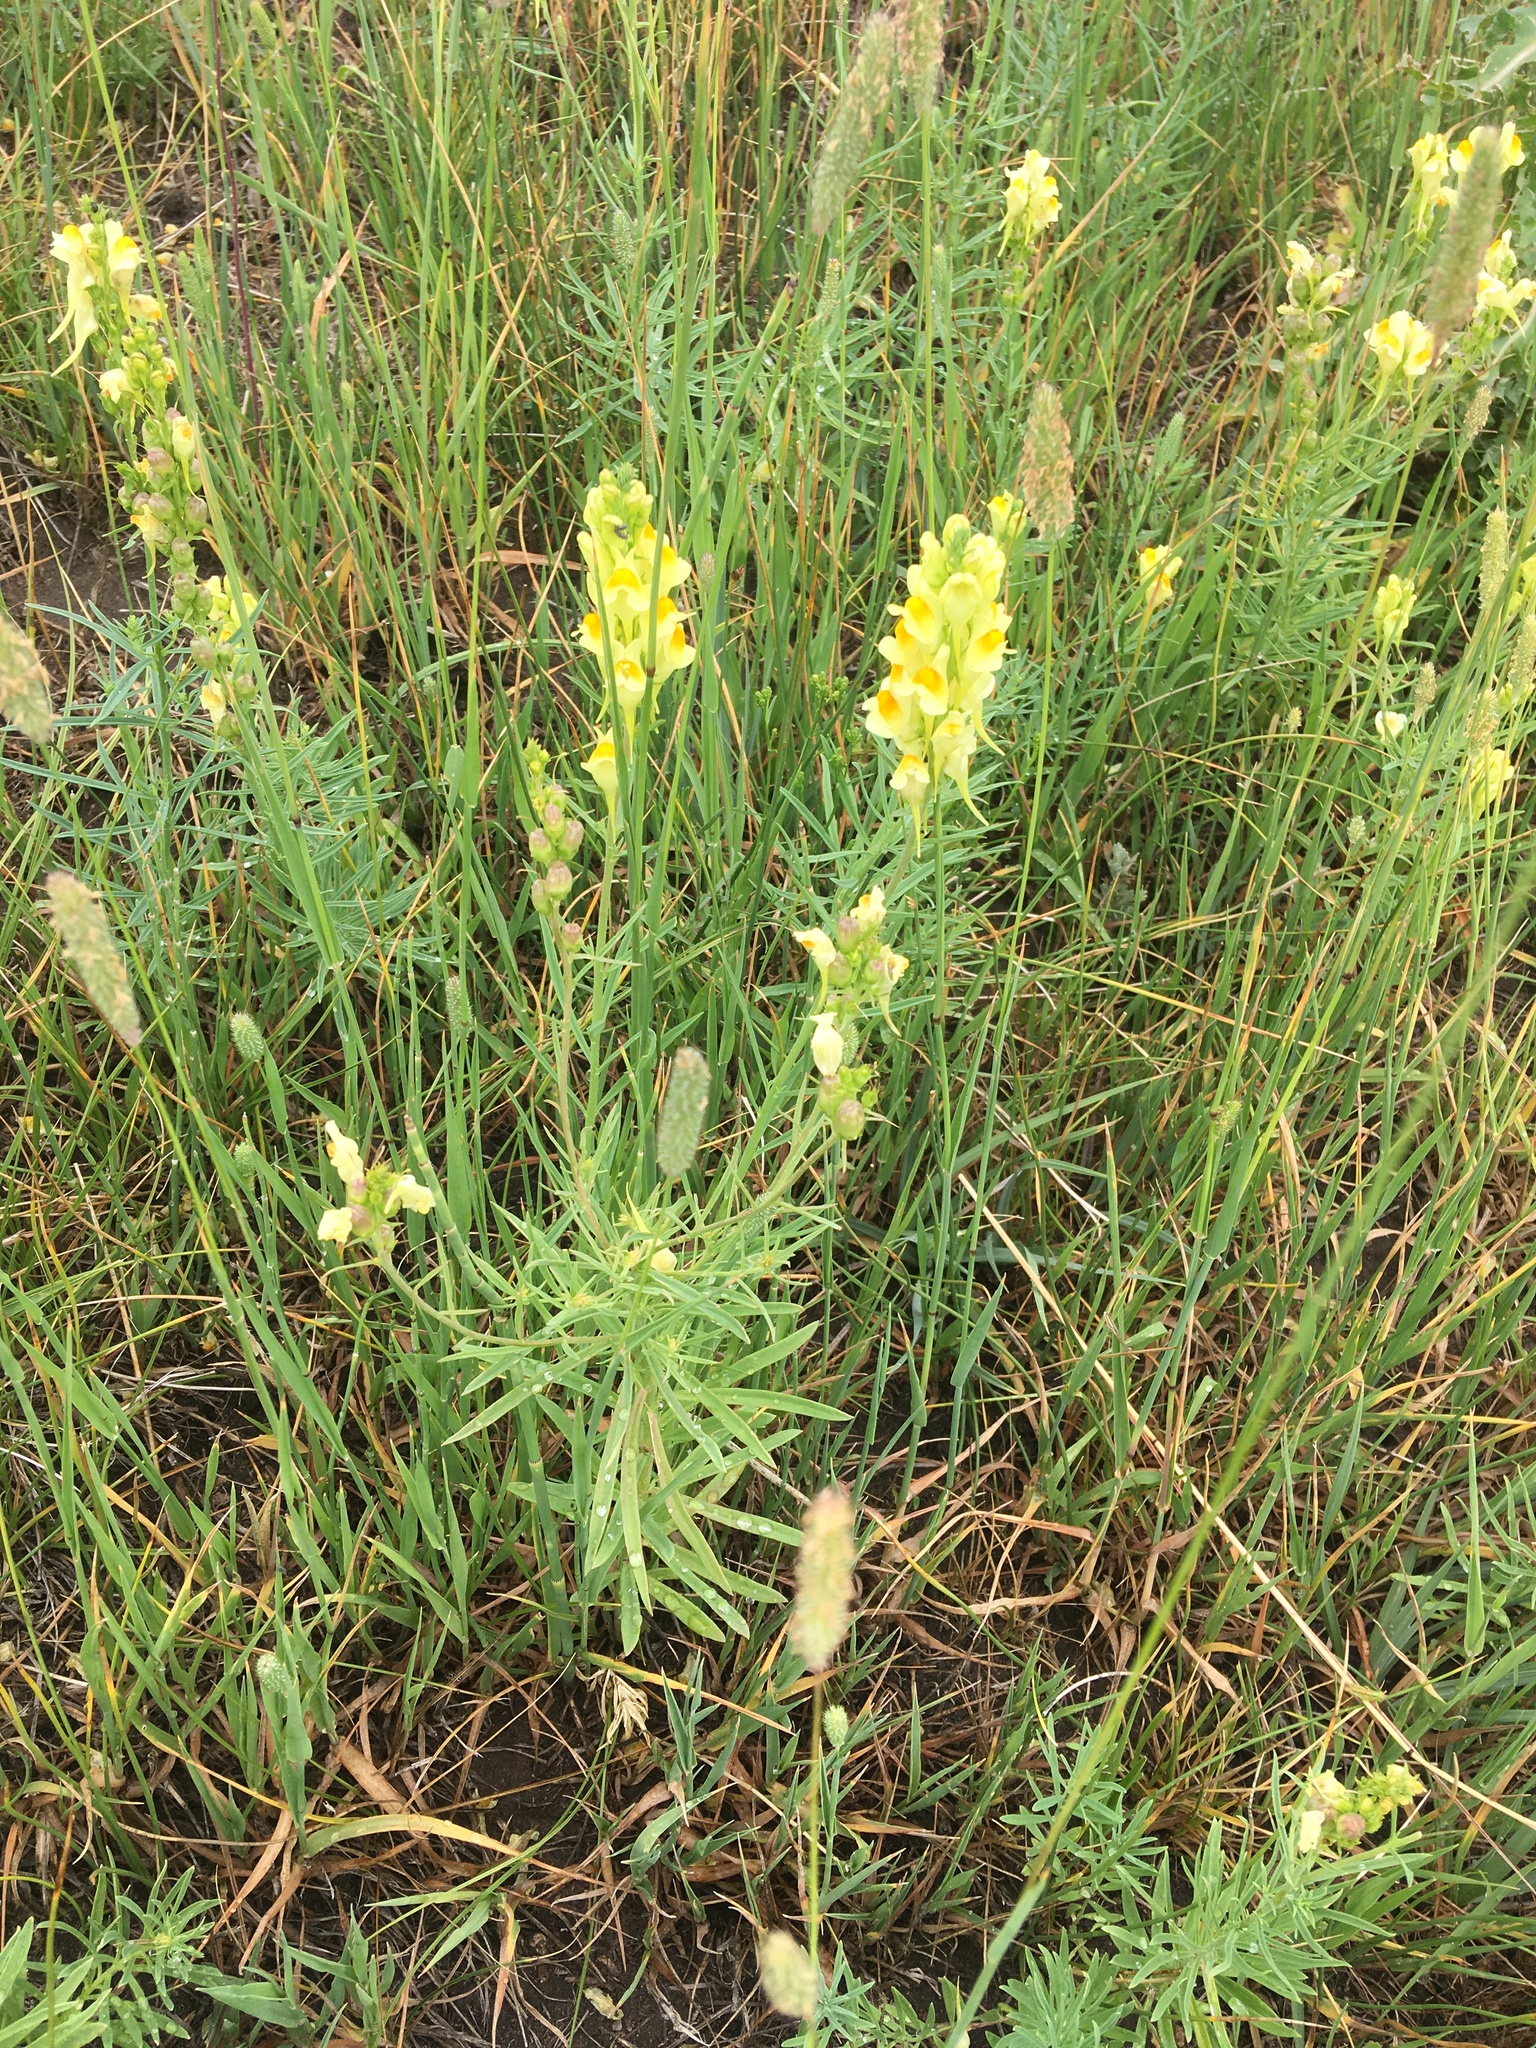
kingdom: Plantae
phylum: Tracheophyta
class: Magnoliopsida
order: Lamiales
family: Plantaginaceae
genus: Linaria
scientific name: Linaria vulgaris
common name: Butter and eggs
